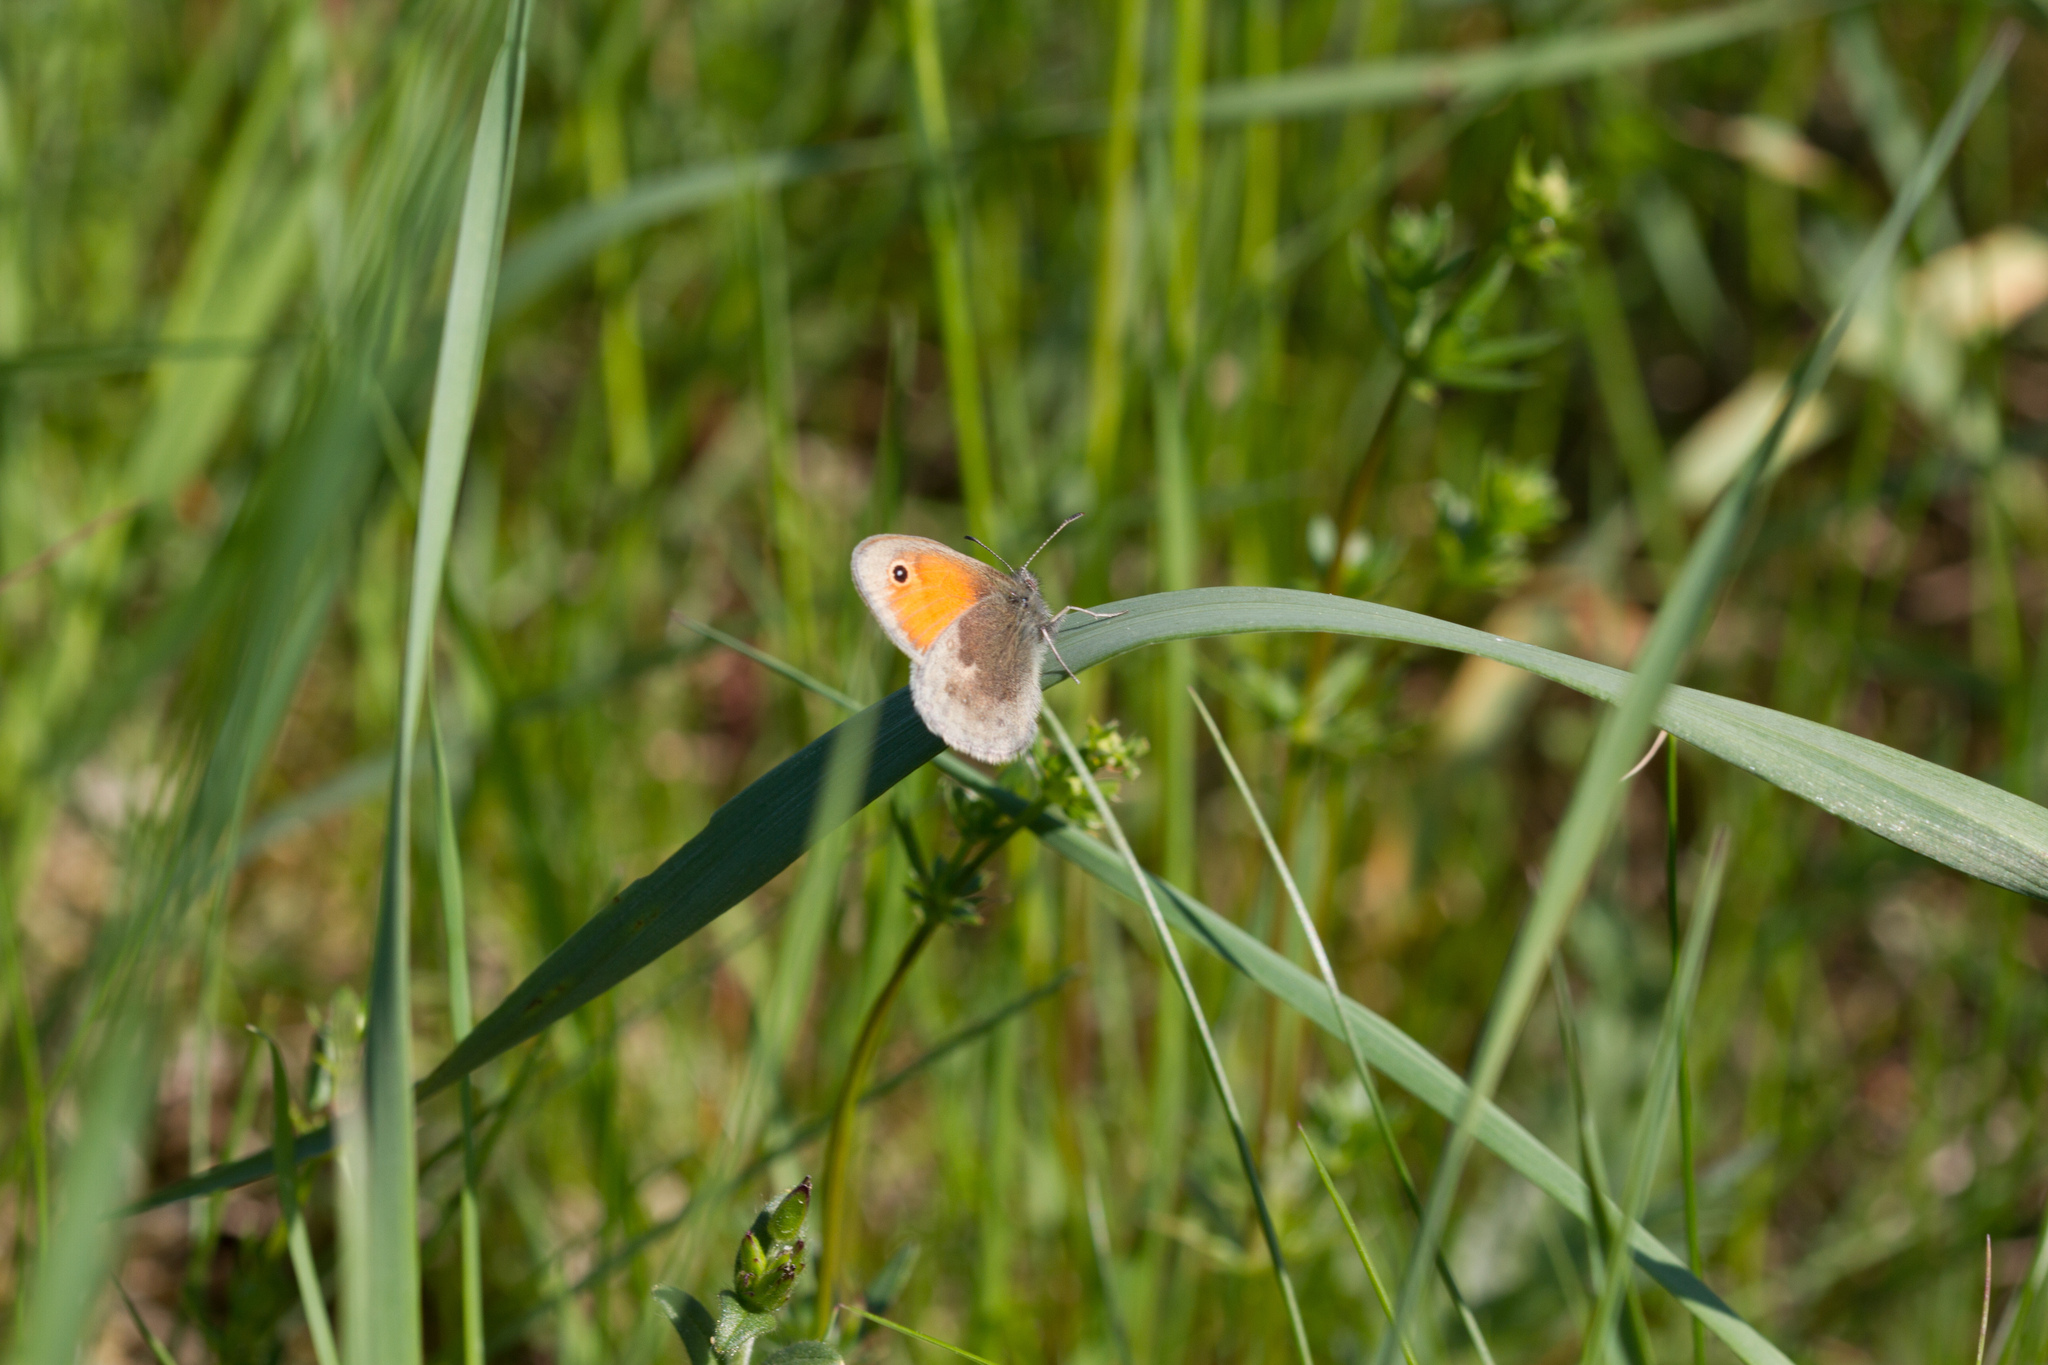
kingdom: Animalia
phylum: Arthropoda
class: Insecta
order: Lepidoptera
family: Nymphalidae
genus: Coenonympha
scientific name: Coenonympha pamphilus
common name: Small heath
